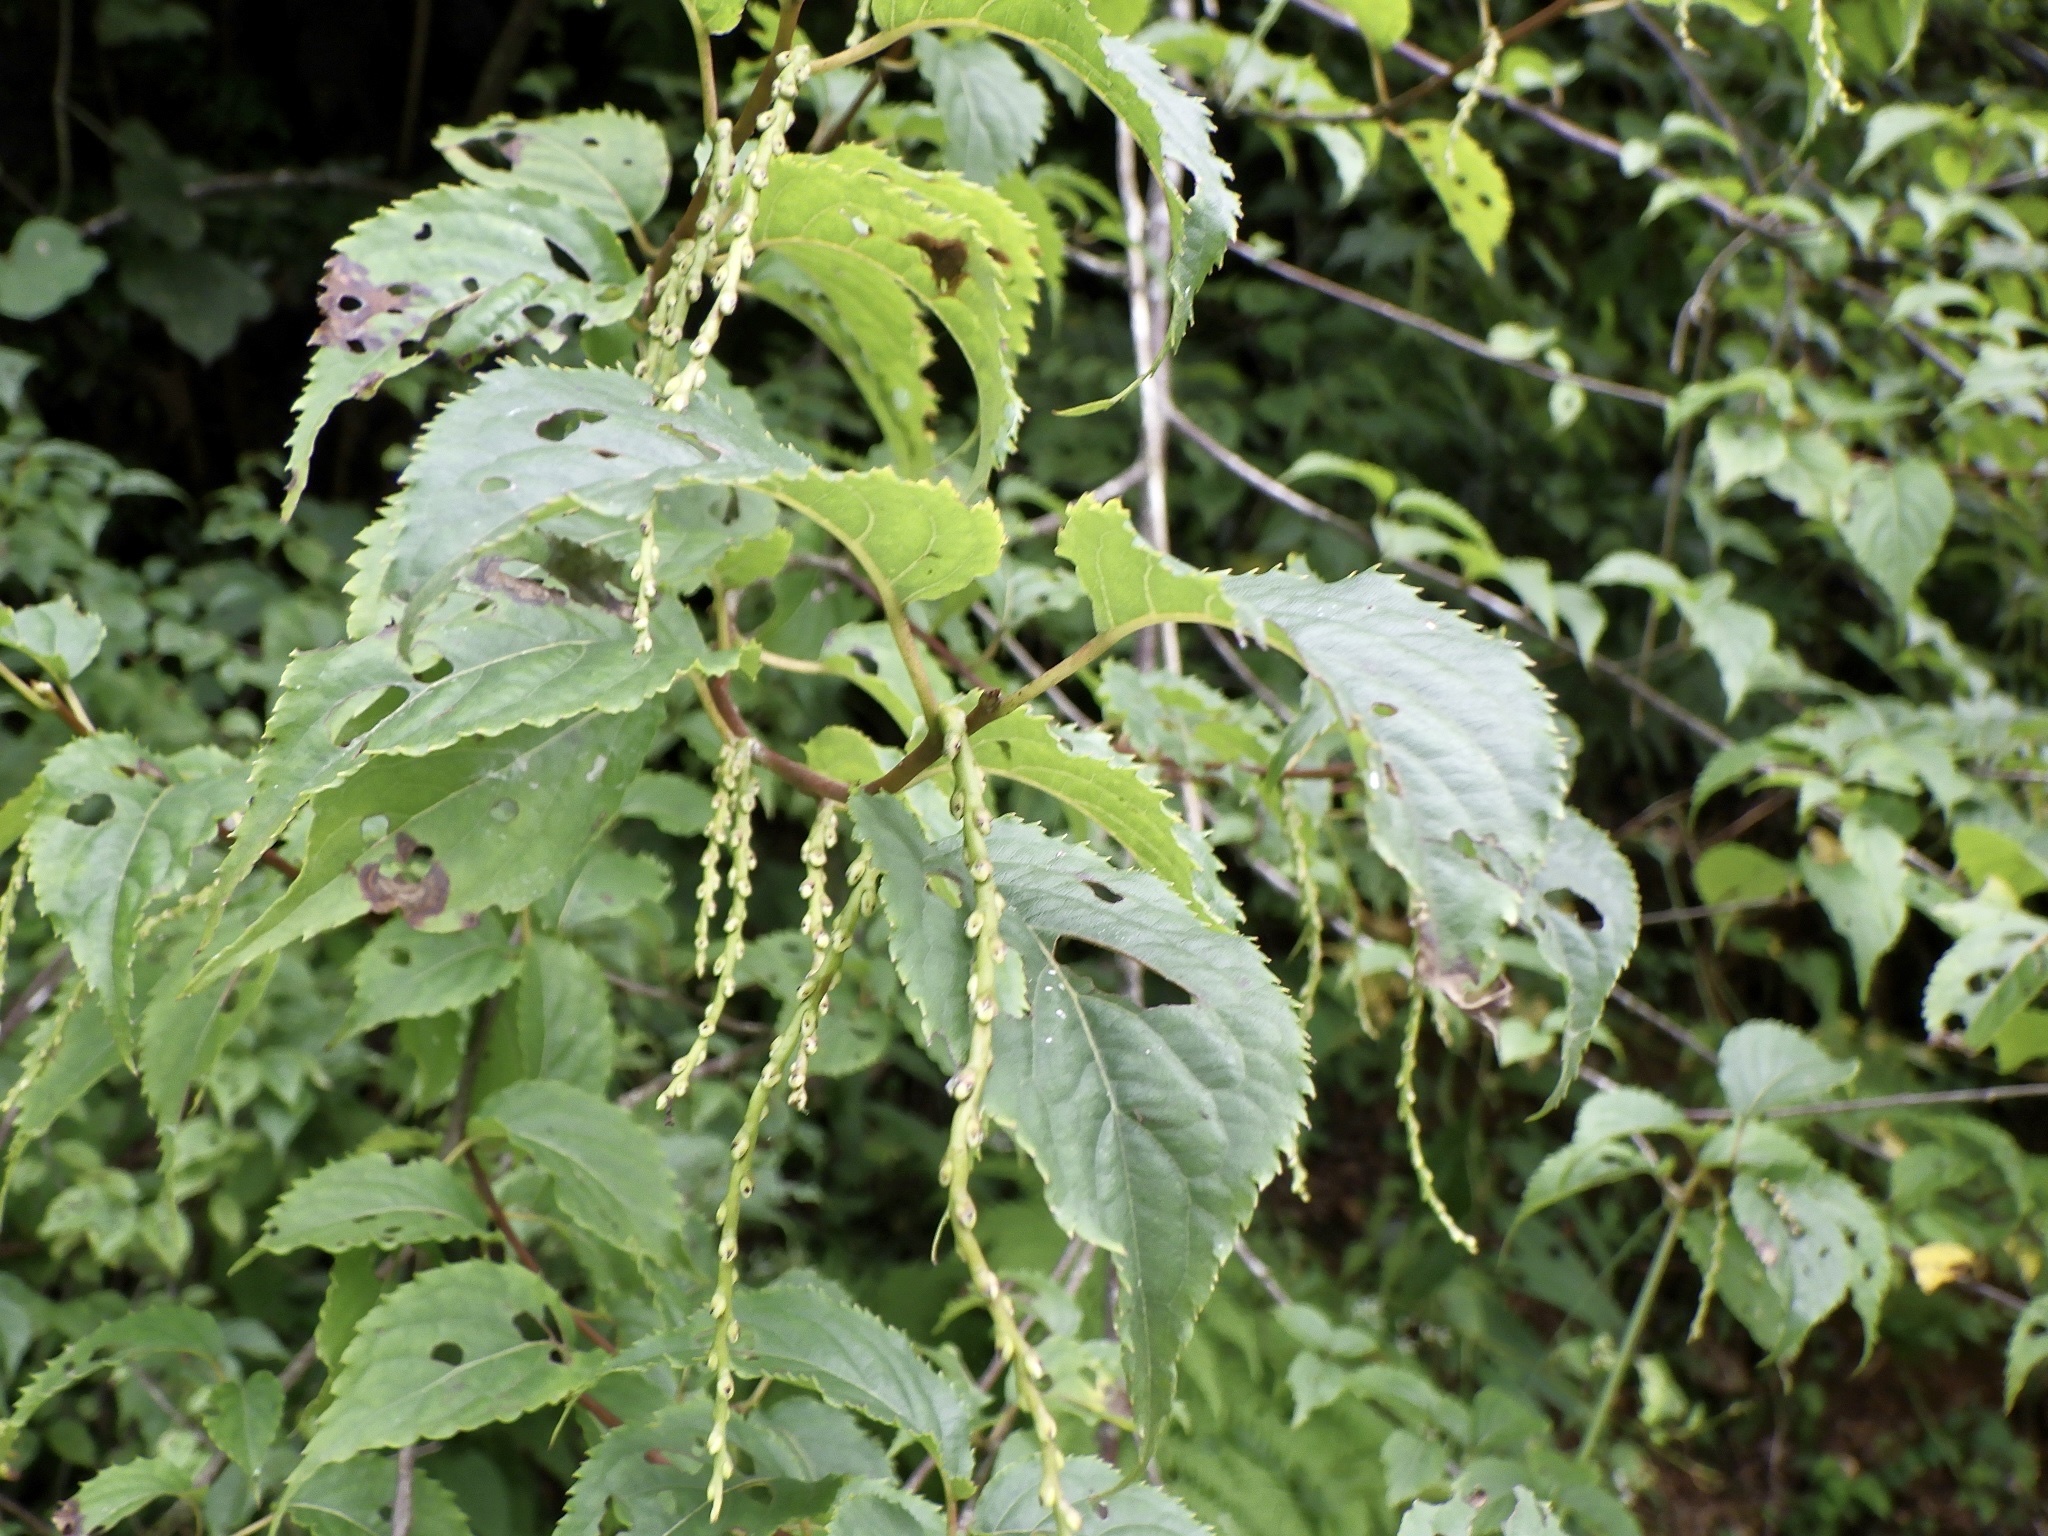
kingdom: Plantae
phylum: Tracheophyta
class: Magnoliopsida
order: Crossosomatales
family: Stachyuraceae
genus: Stachyurus
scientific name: Stachyurus praecox
